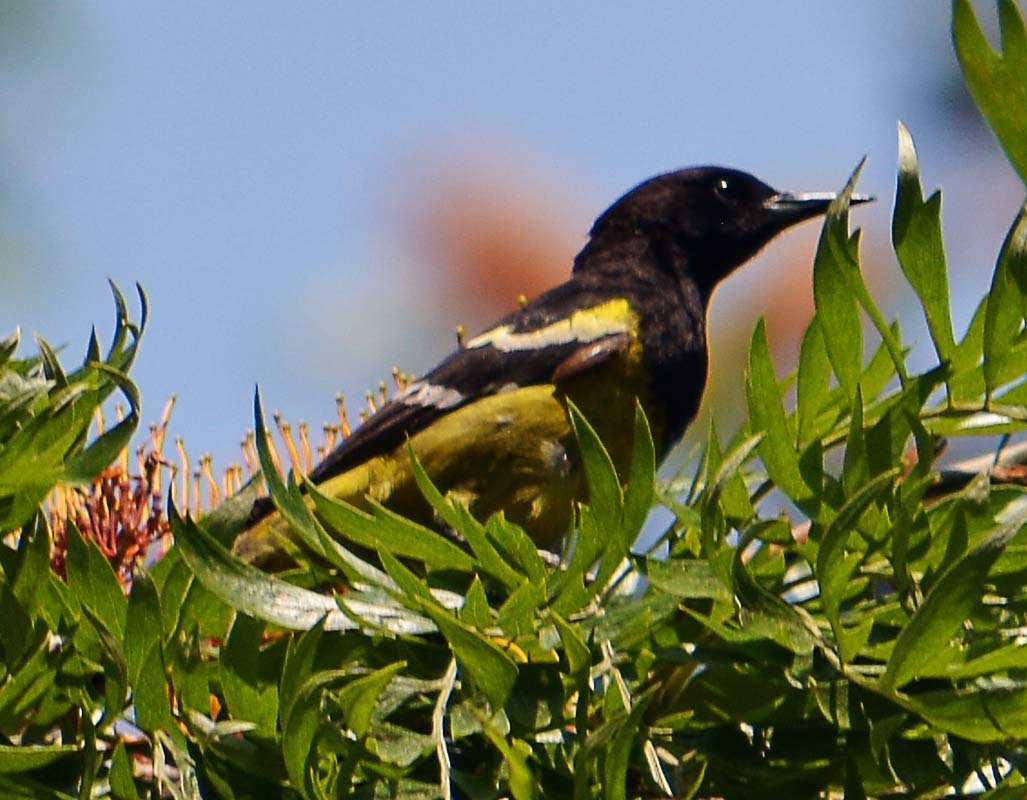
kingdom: Animalia
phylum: Chordata
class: Aves
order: Passeriformes
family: Icteridae
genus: Icterus
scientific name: Icterus parisorum
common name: Scott's oriole
